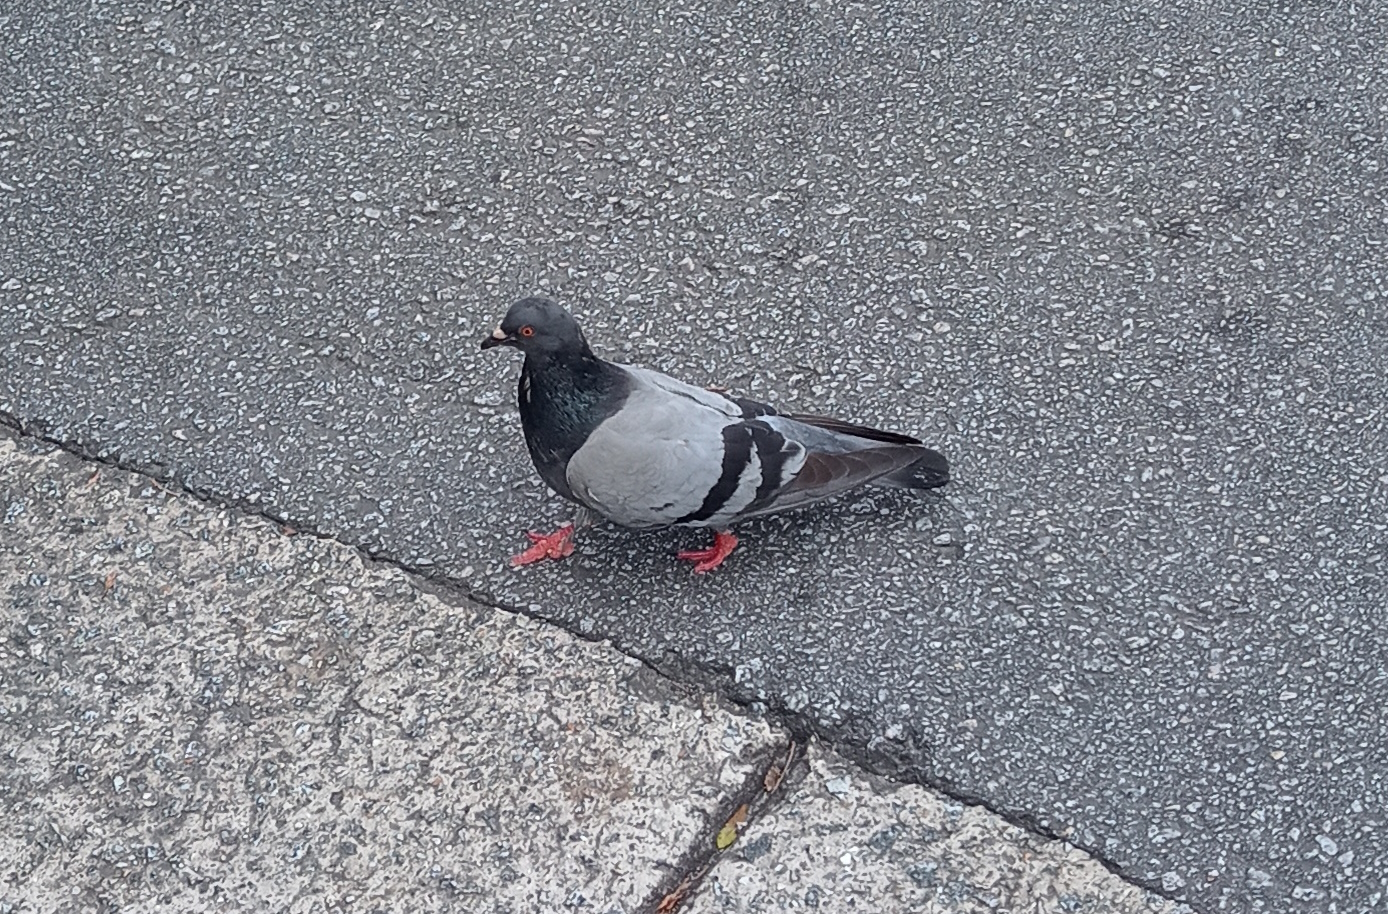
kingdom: Animalia
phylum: Chordata
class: Aves
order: Columbiformes
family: Columbidae
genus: Columba
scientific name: Columba livia
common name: Rock pigeon
